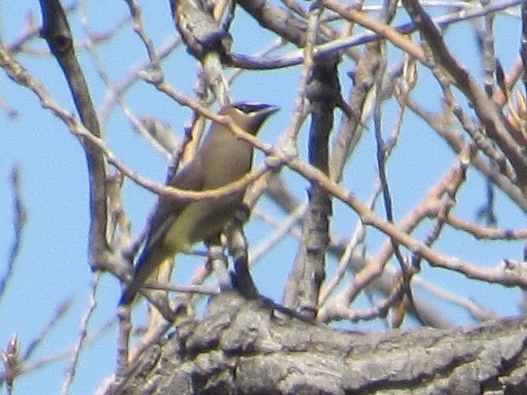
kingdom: Animalia
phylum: Chordata
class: Aves
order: Passeriformes
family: Bombycillidae
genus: Bombycilla
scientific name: Bombycilla cedrorum
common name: Cedar waxwing
